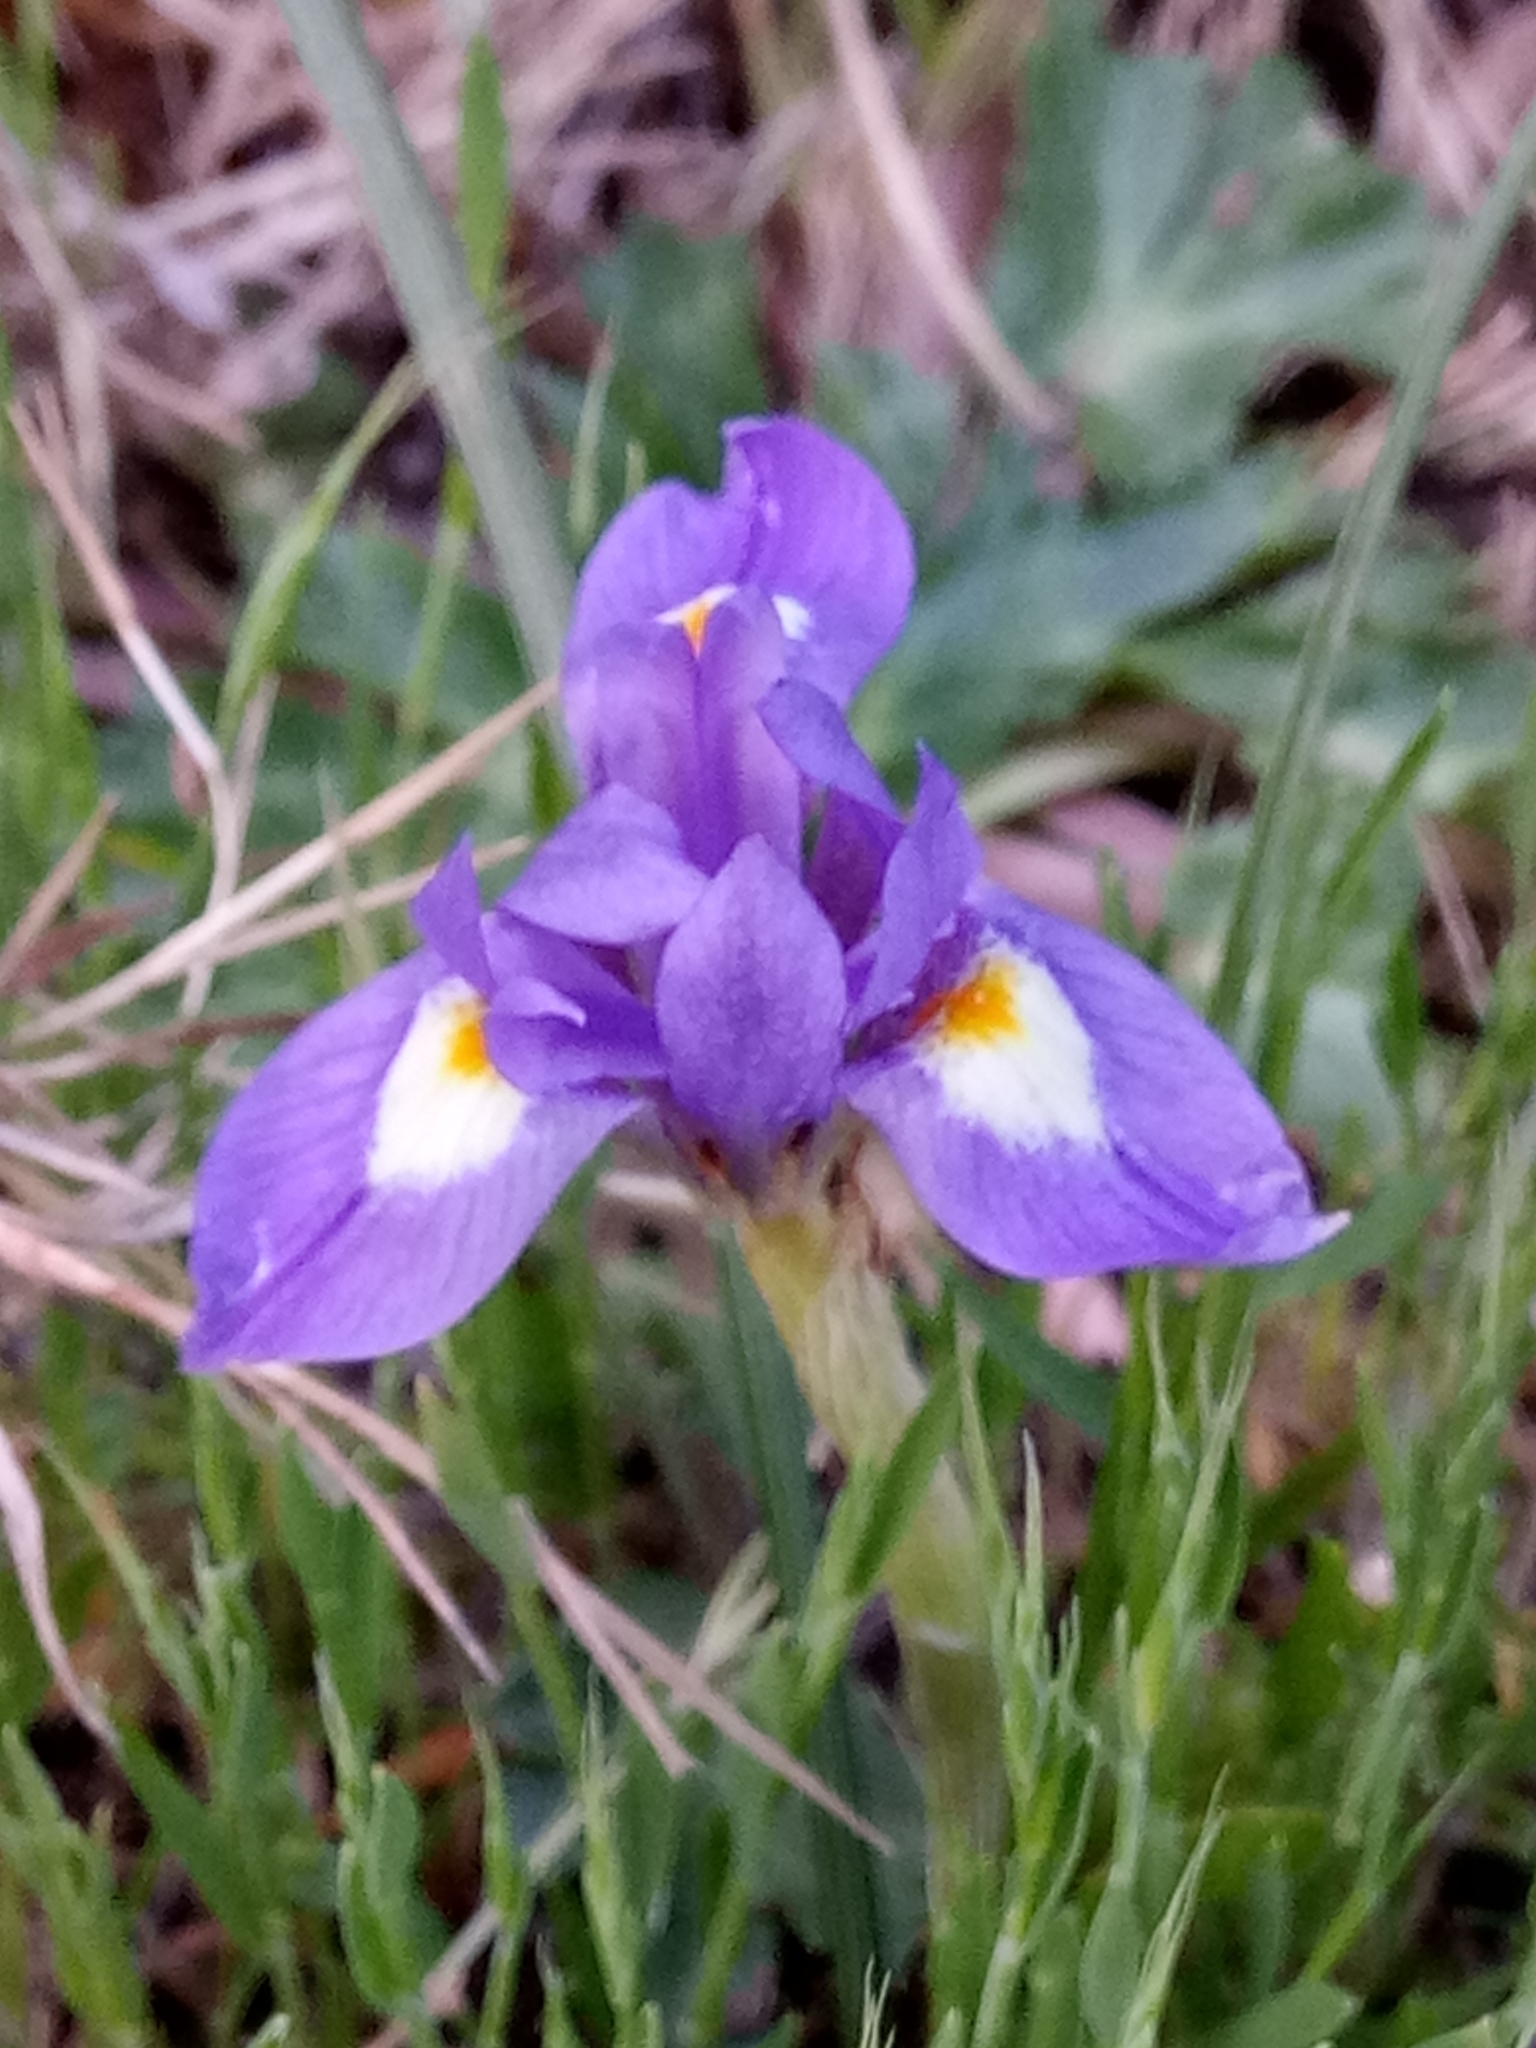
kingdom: Plantae
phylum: Tracheophyta
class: Liliopsida
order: Asparagales
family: Iridaceae
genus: Moraea
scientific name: Moraea sisyrinchium
